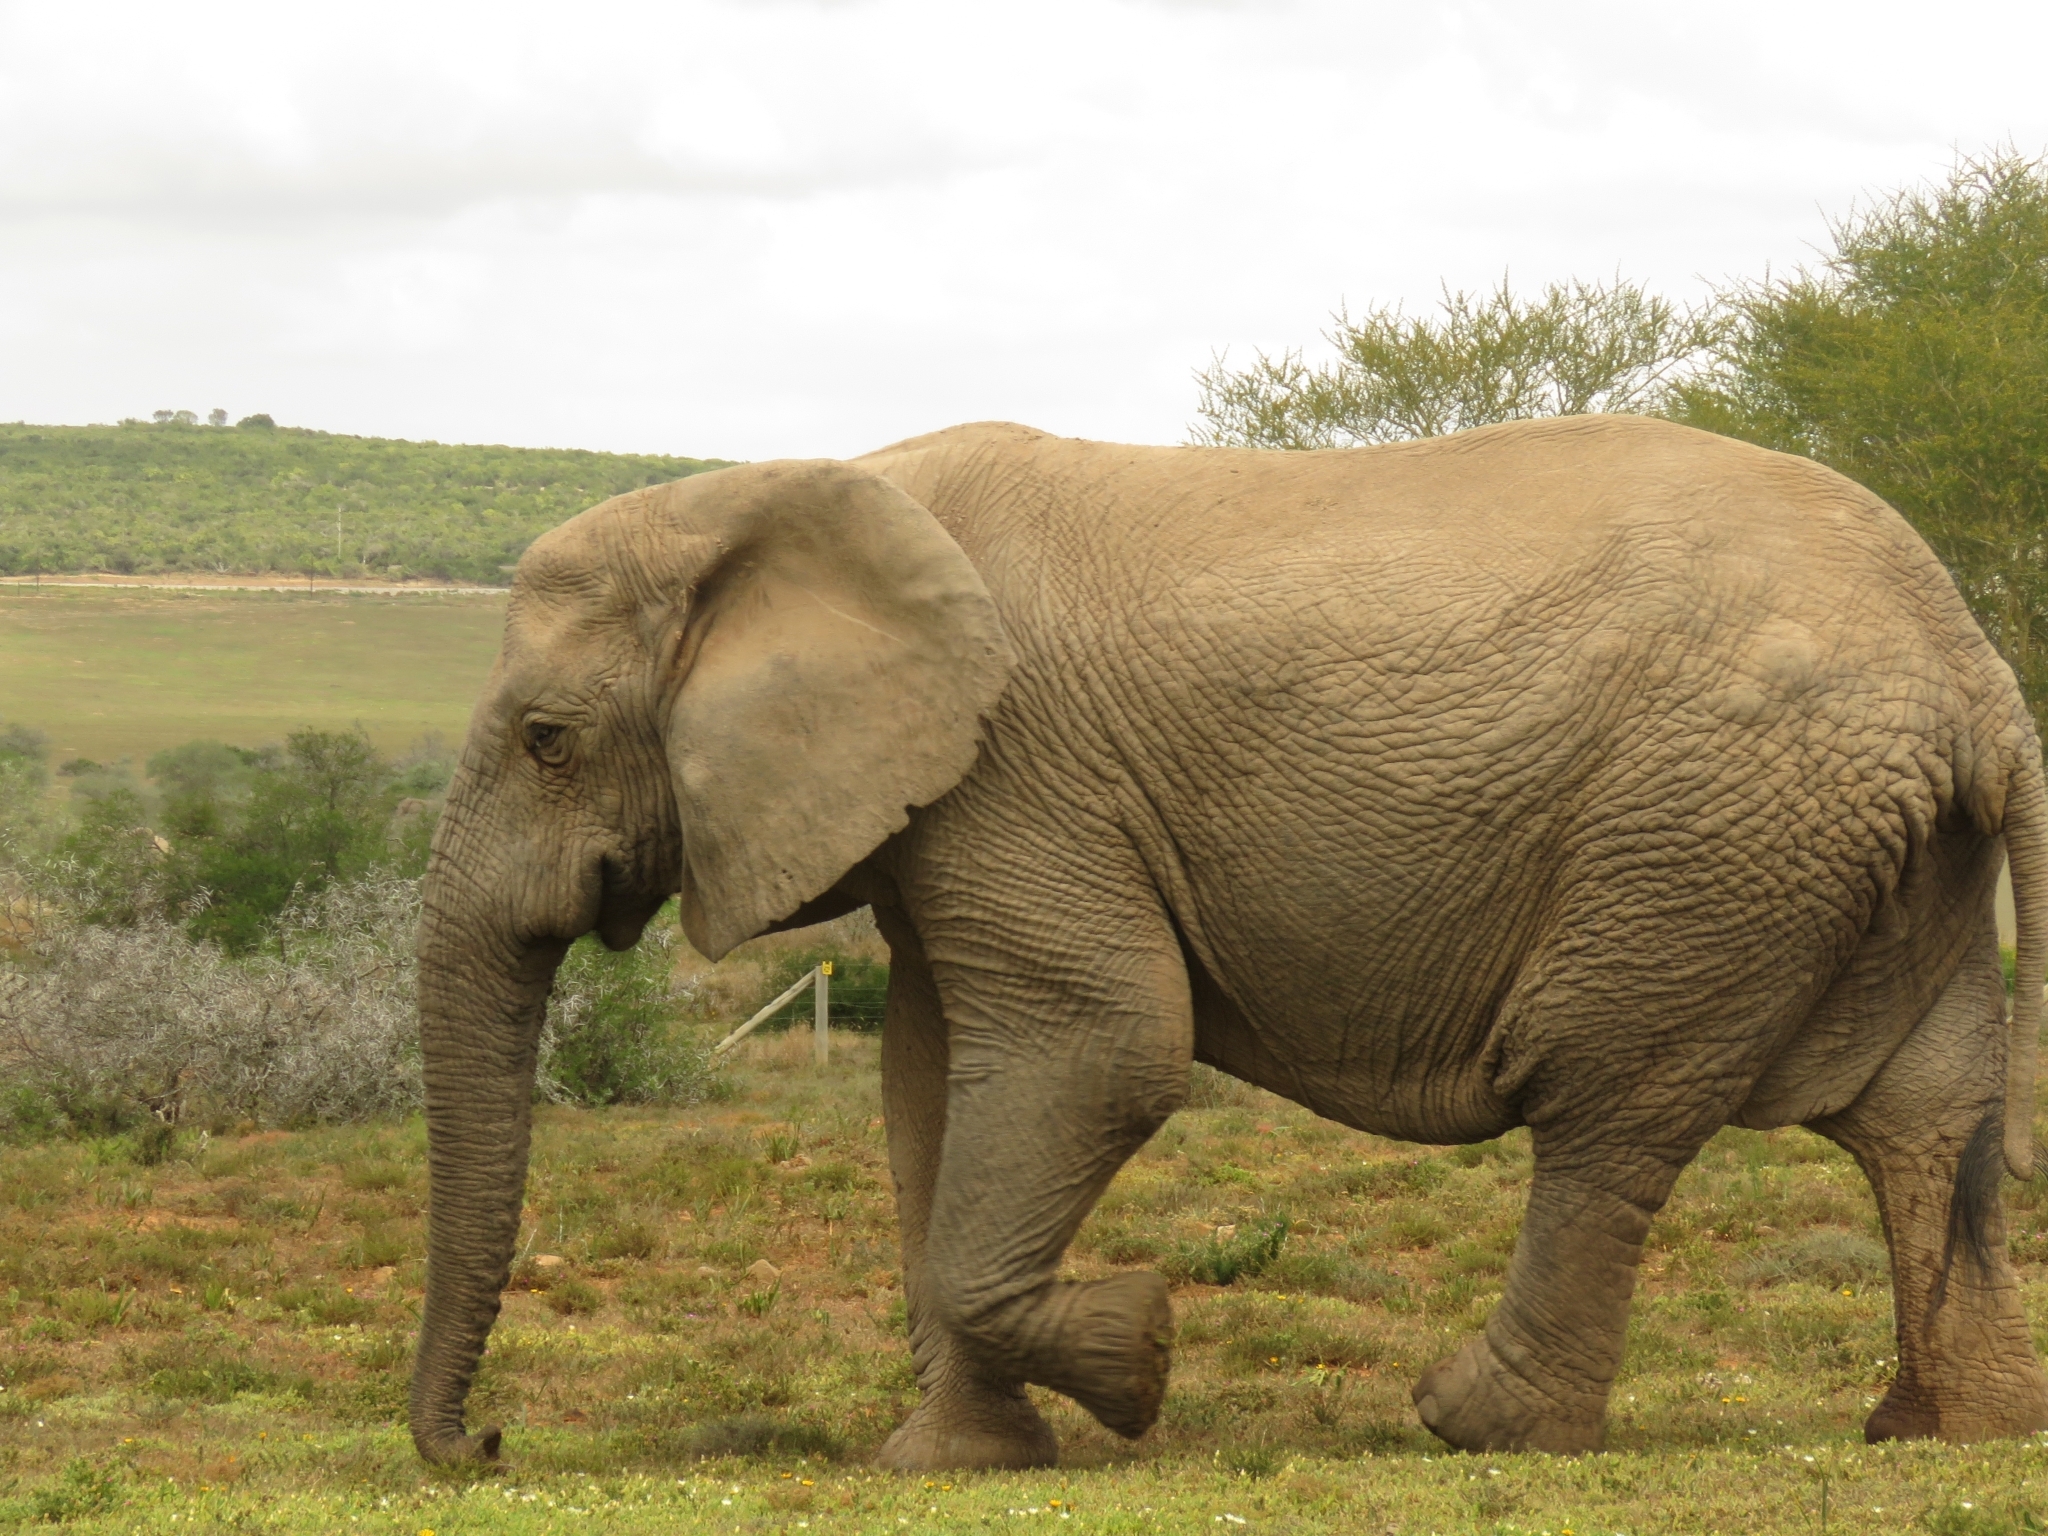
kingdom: Animalia
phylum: Chordata
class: Mammalia
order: Proboscidea
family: Elephantidae
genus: Loxodonta
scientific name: Loxodonta africana
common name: African elephant
